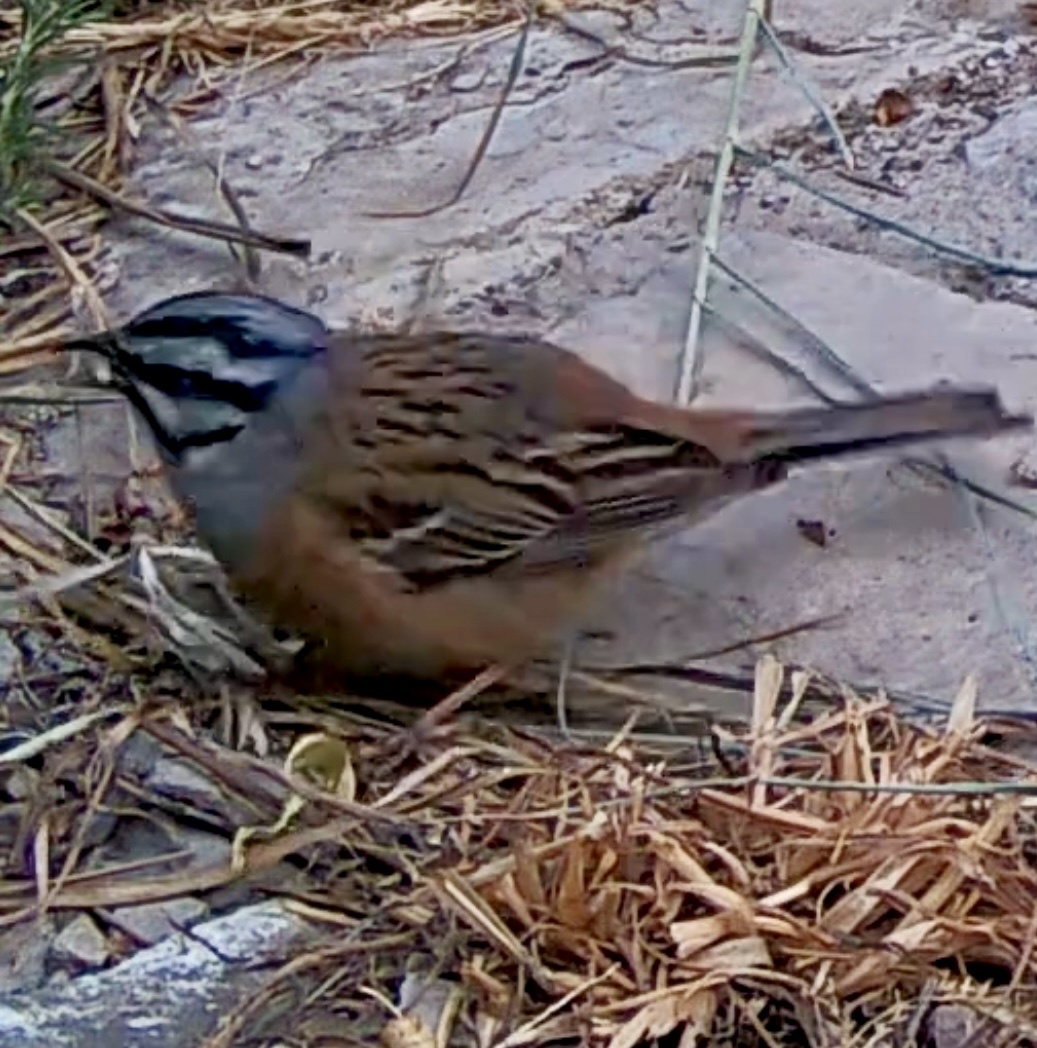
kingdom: Animalia
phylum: Chordata
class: Aves
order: Passeriformes
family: Emberizidae
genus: Emberiza
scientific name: Emberiza cia
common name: Rock bunting
